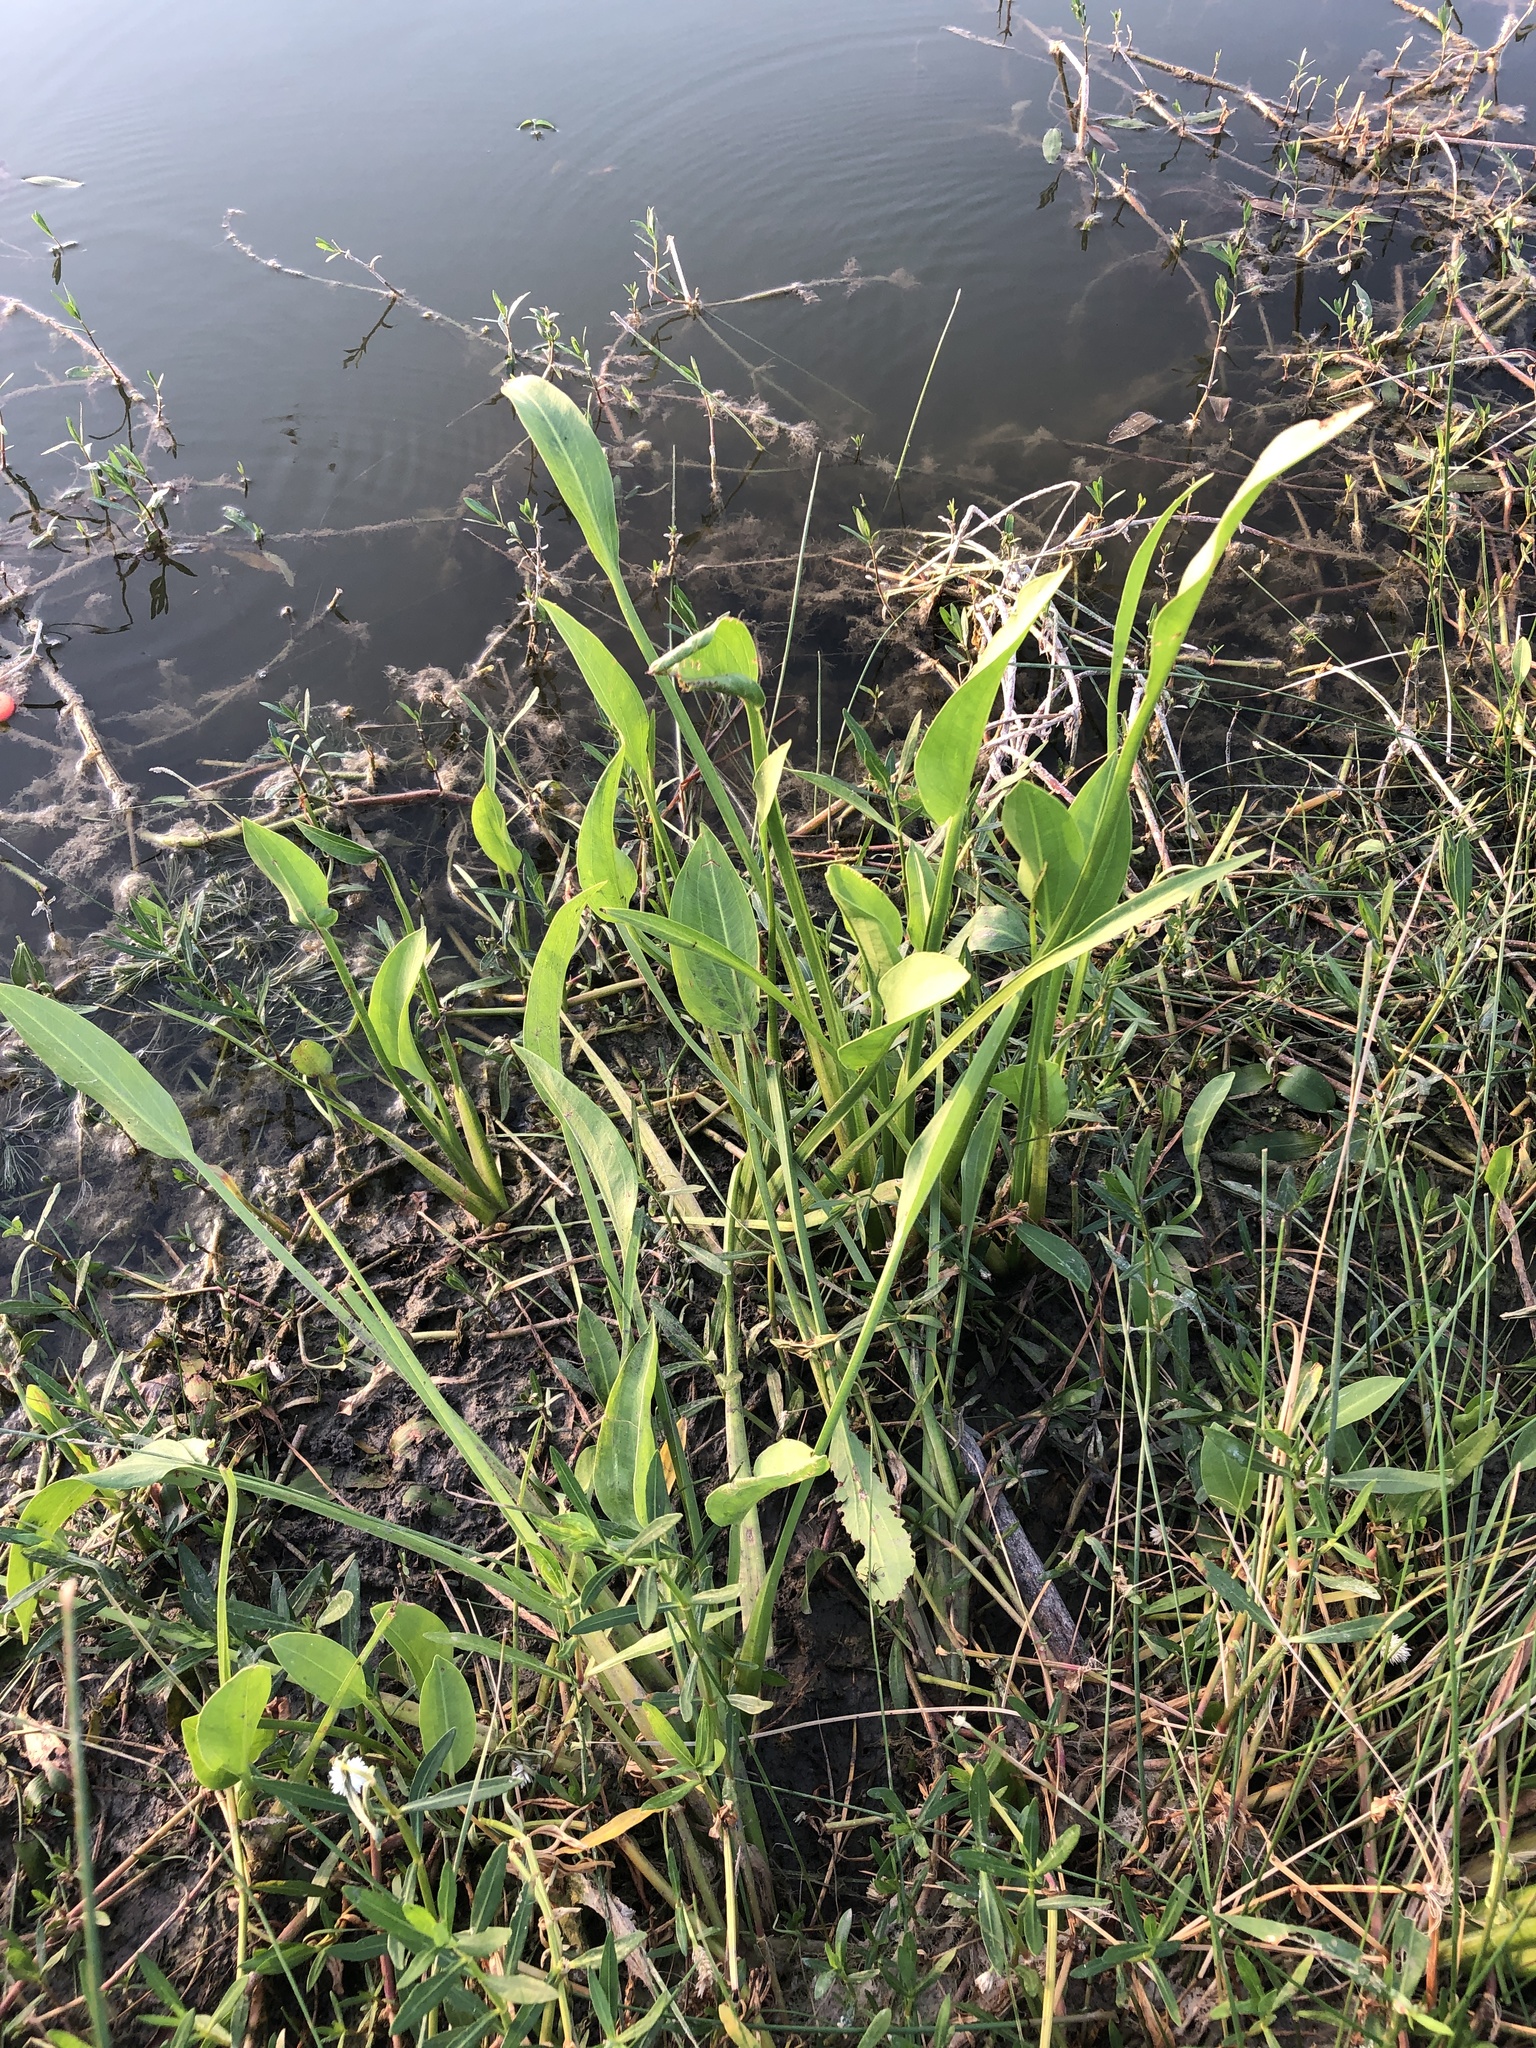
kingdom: Plantae
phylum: Tracheophyta
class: Liliopsida
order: Alismatales
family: Alismataceae
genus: Sagittaria
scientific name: Sagittaria platyphylla
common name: Broad-leaf arrowhead
